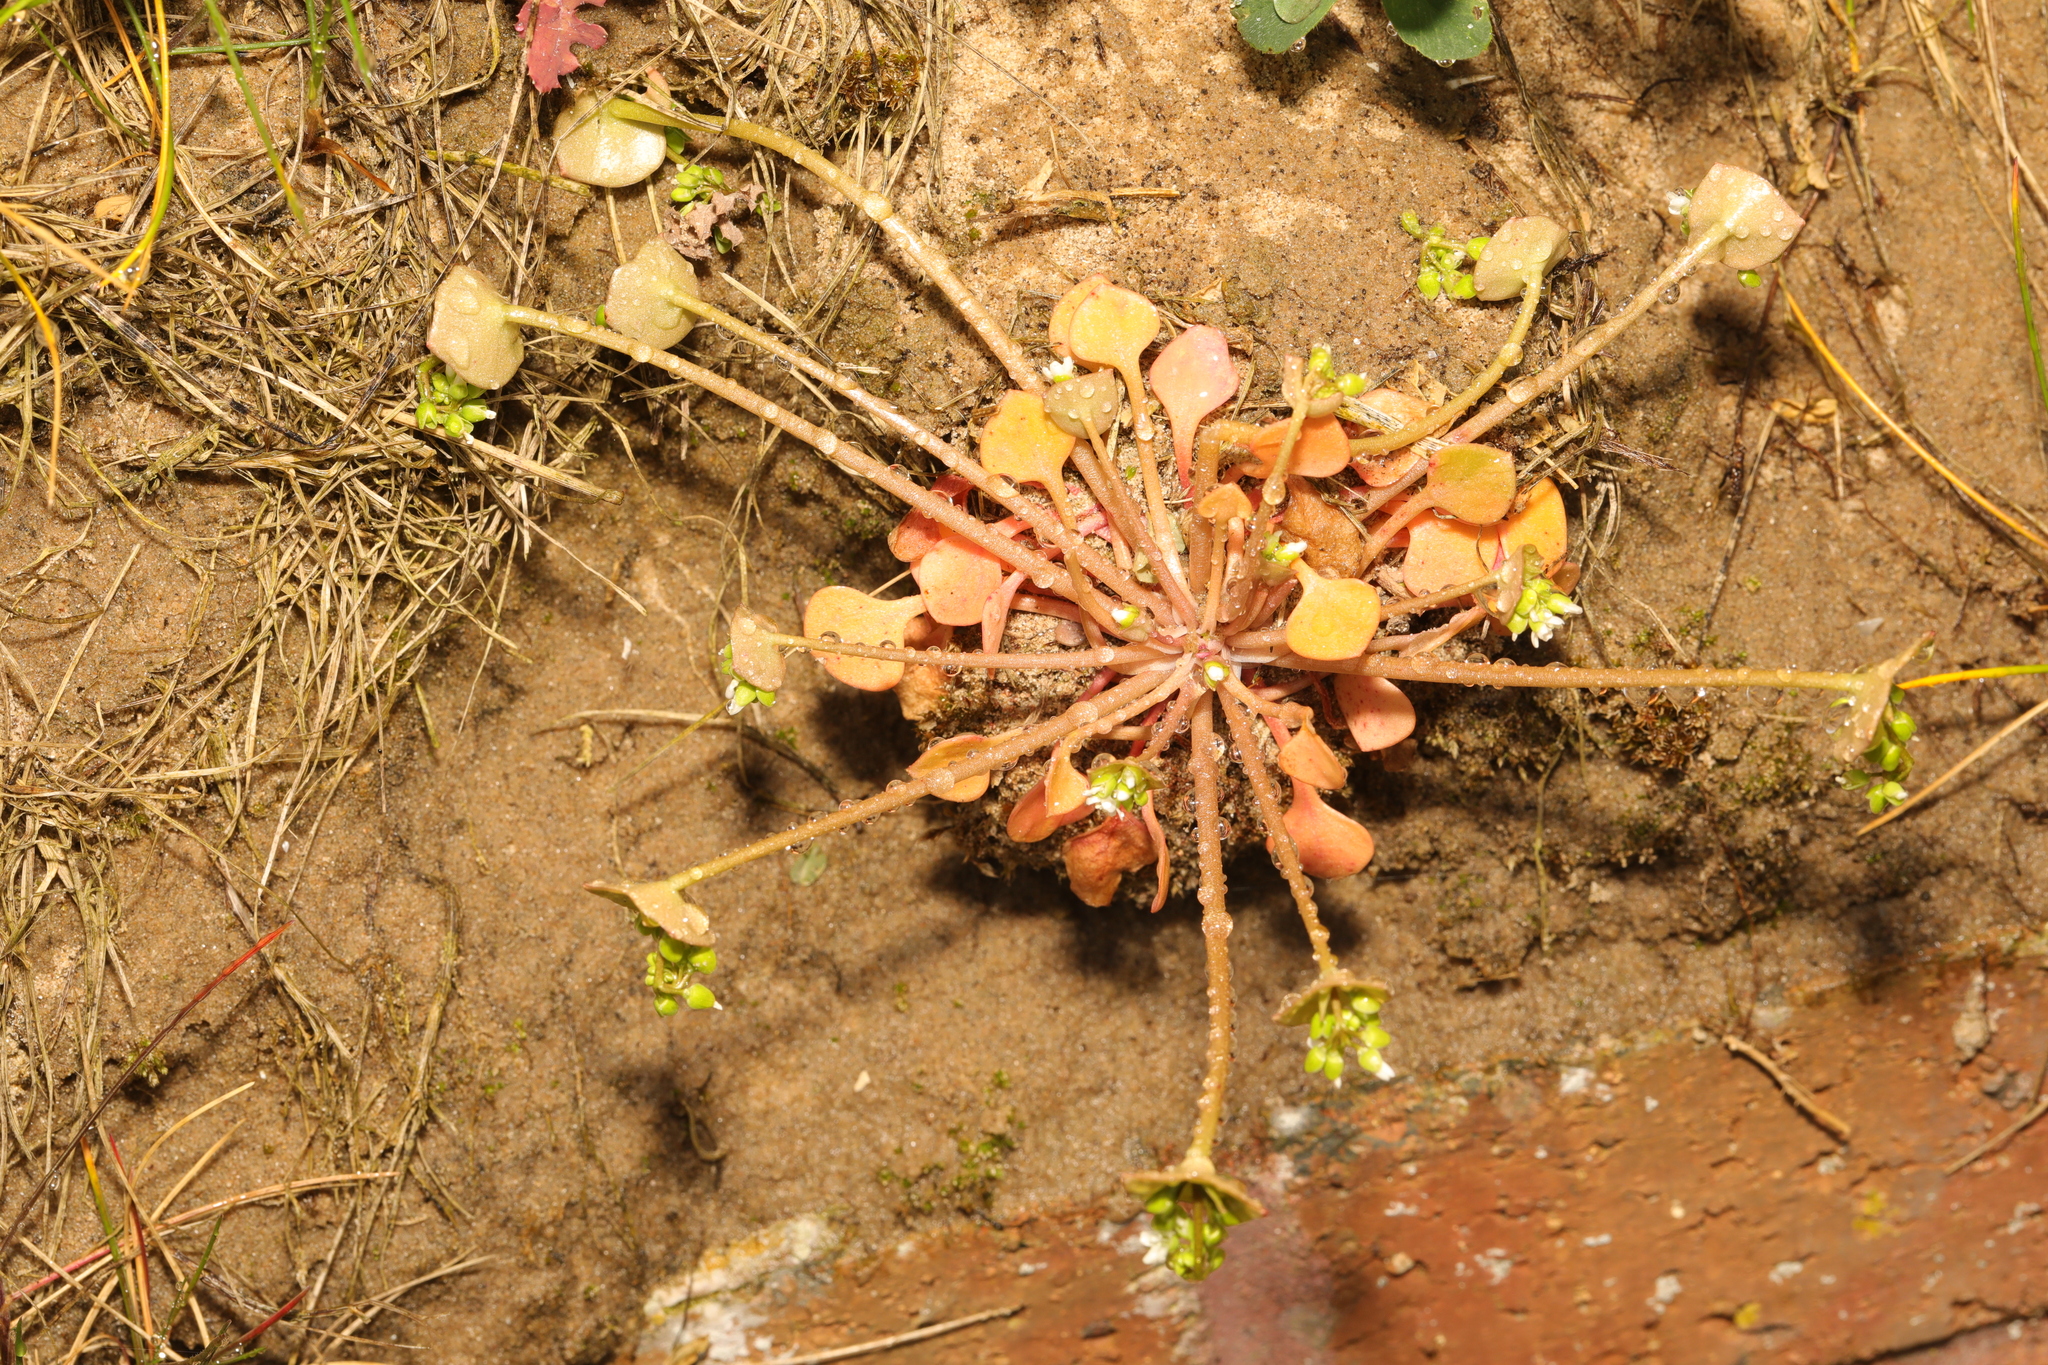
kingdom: Plantae
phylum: Tracheophyta
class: Magnoliopsida
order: Caryophyllales
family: Montiaceae
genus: Claytonia
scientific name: Claytonia perfoliata
